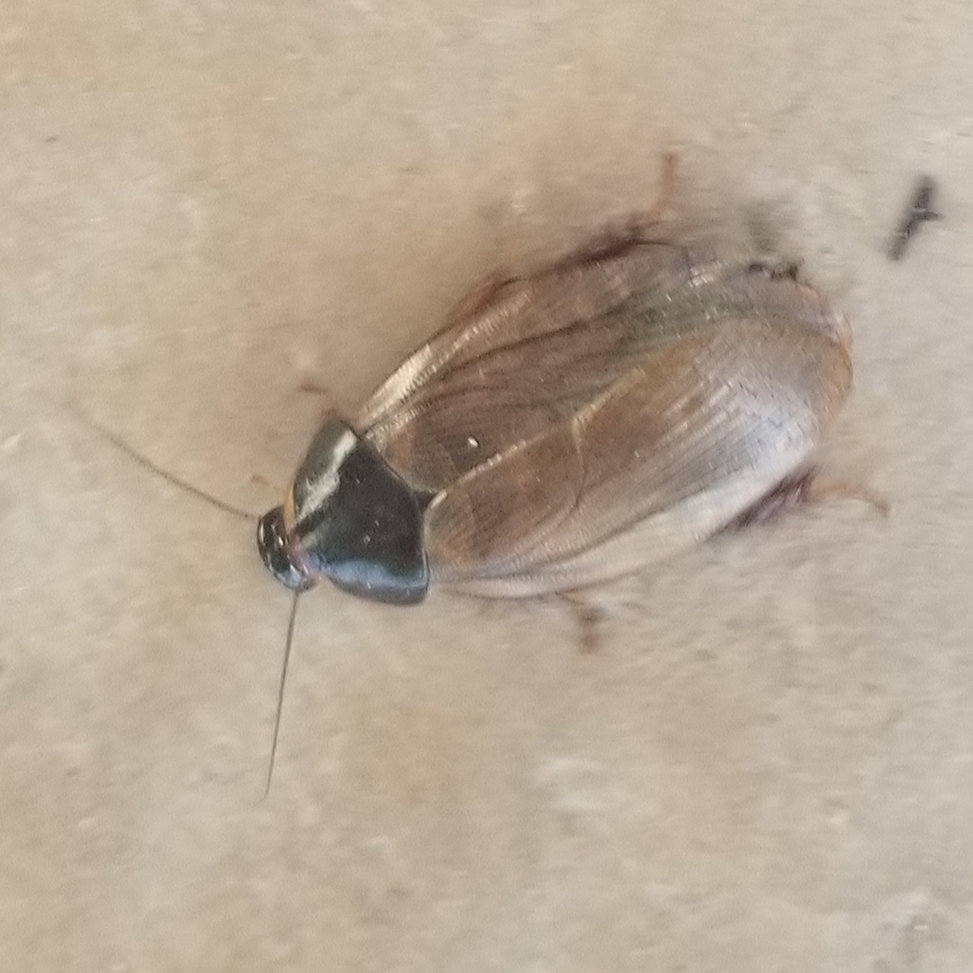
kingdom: Animalia
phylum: Arthropoda
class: Insecta
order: Blattodea
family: Blaberidae
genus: Pycnoscelus
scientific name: Pycnoscelus surinamensis
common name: Surinam cockroach
